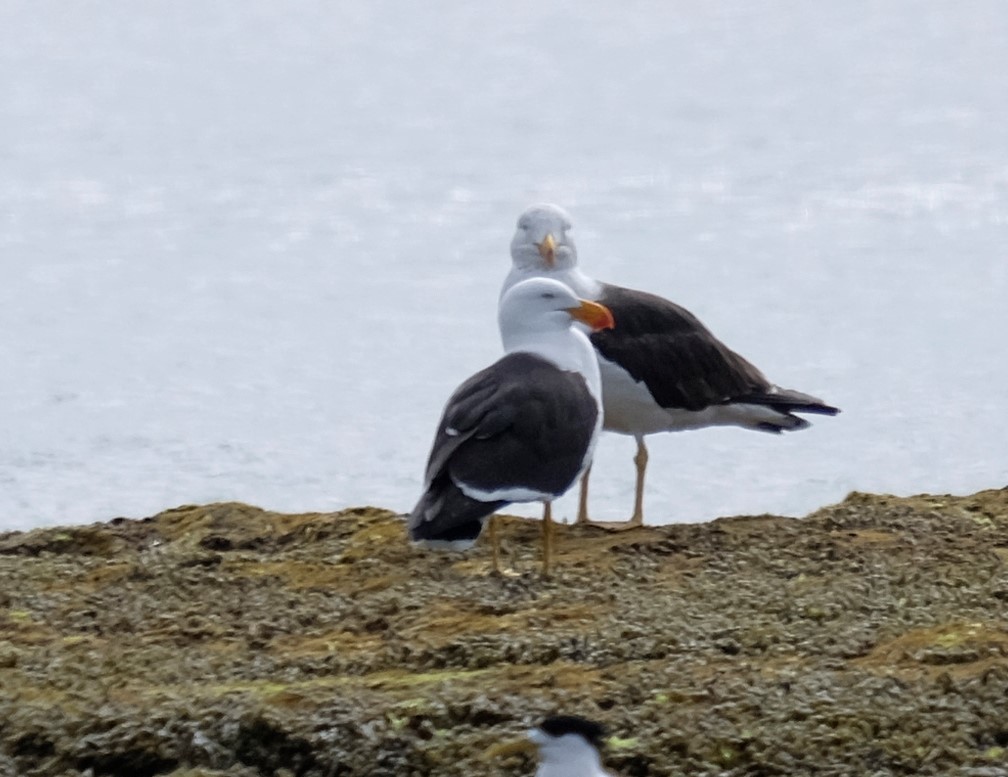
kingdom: Animalia
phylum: Chordata
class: Aves
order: Charadriiformes
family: Laridae
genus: Larus
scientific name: Larus pacificus
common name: Pacific gull
